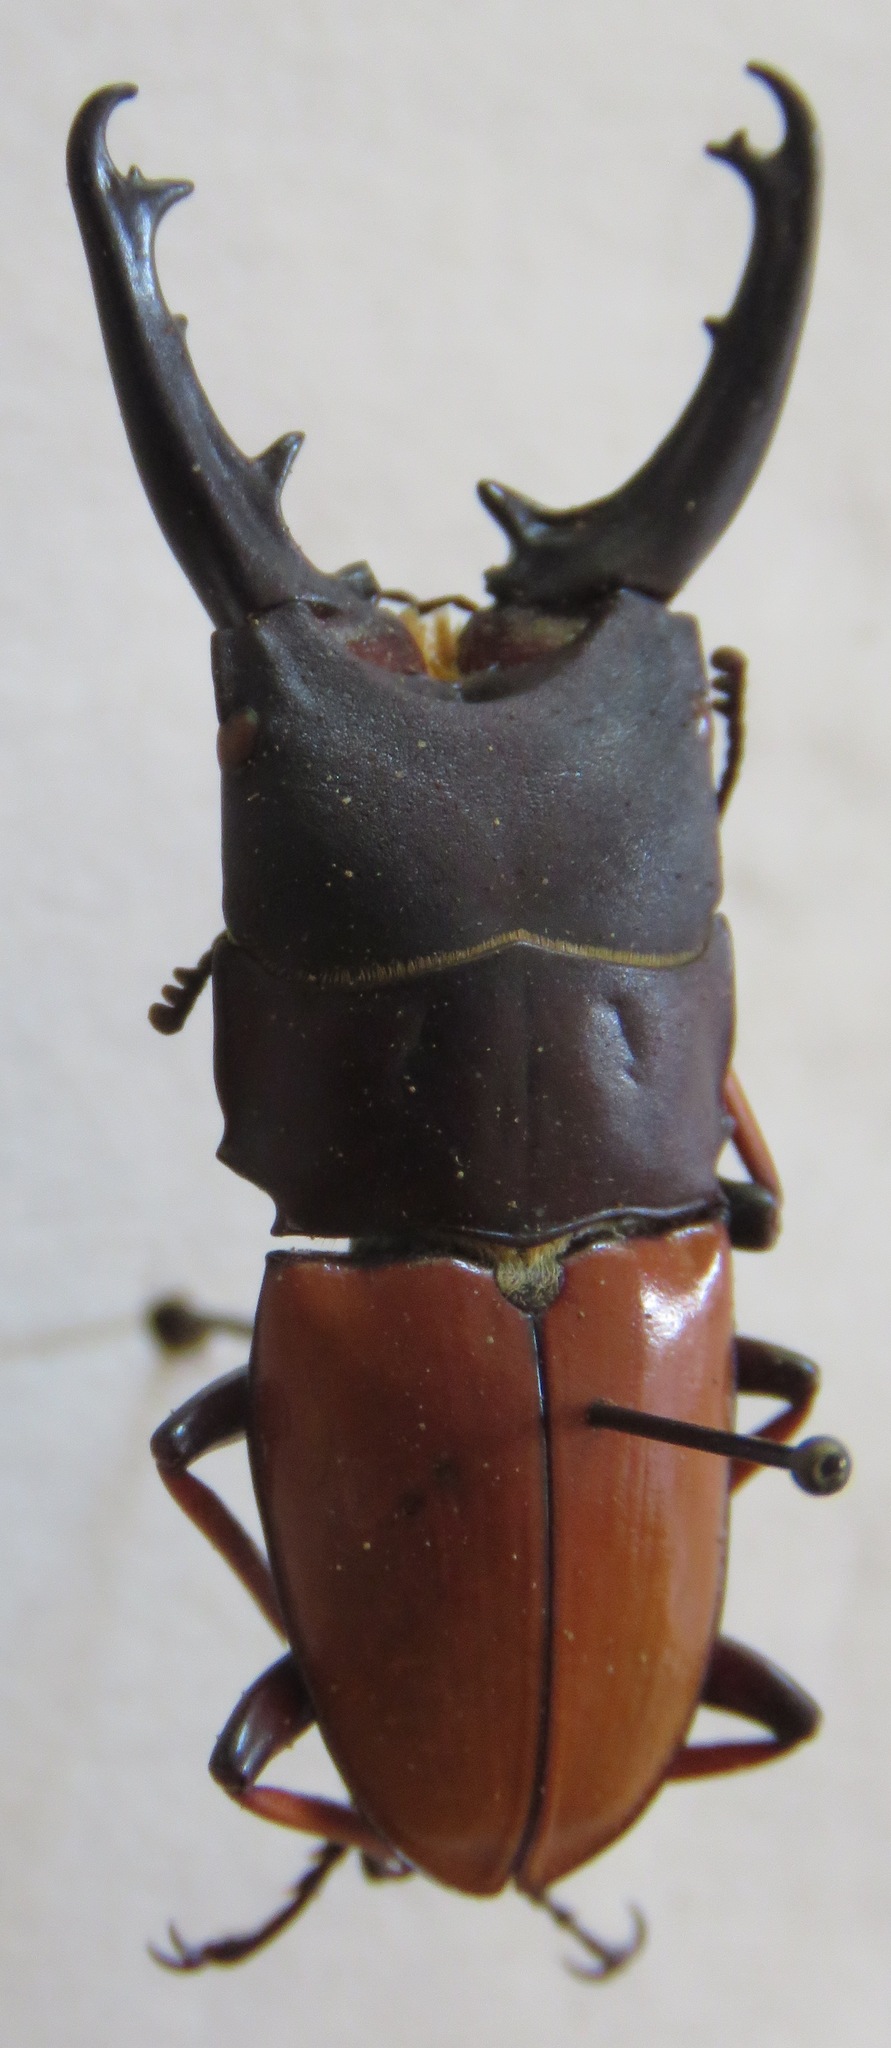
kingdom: Animalia
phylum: Arthropoda
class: Insecta
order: Coleoptera
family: Lucanidae
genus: Leptinopterus
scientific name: Leptinopterus tibialis
